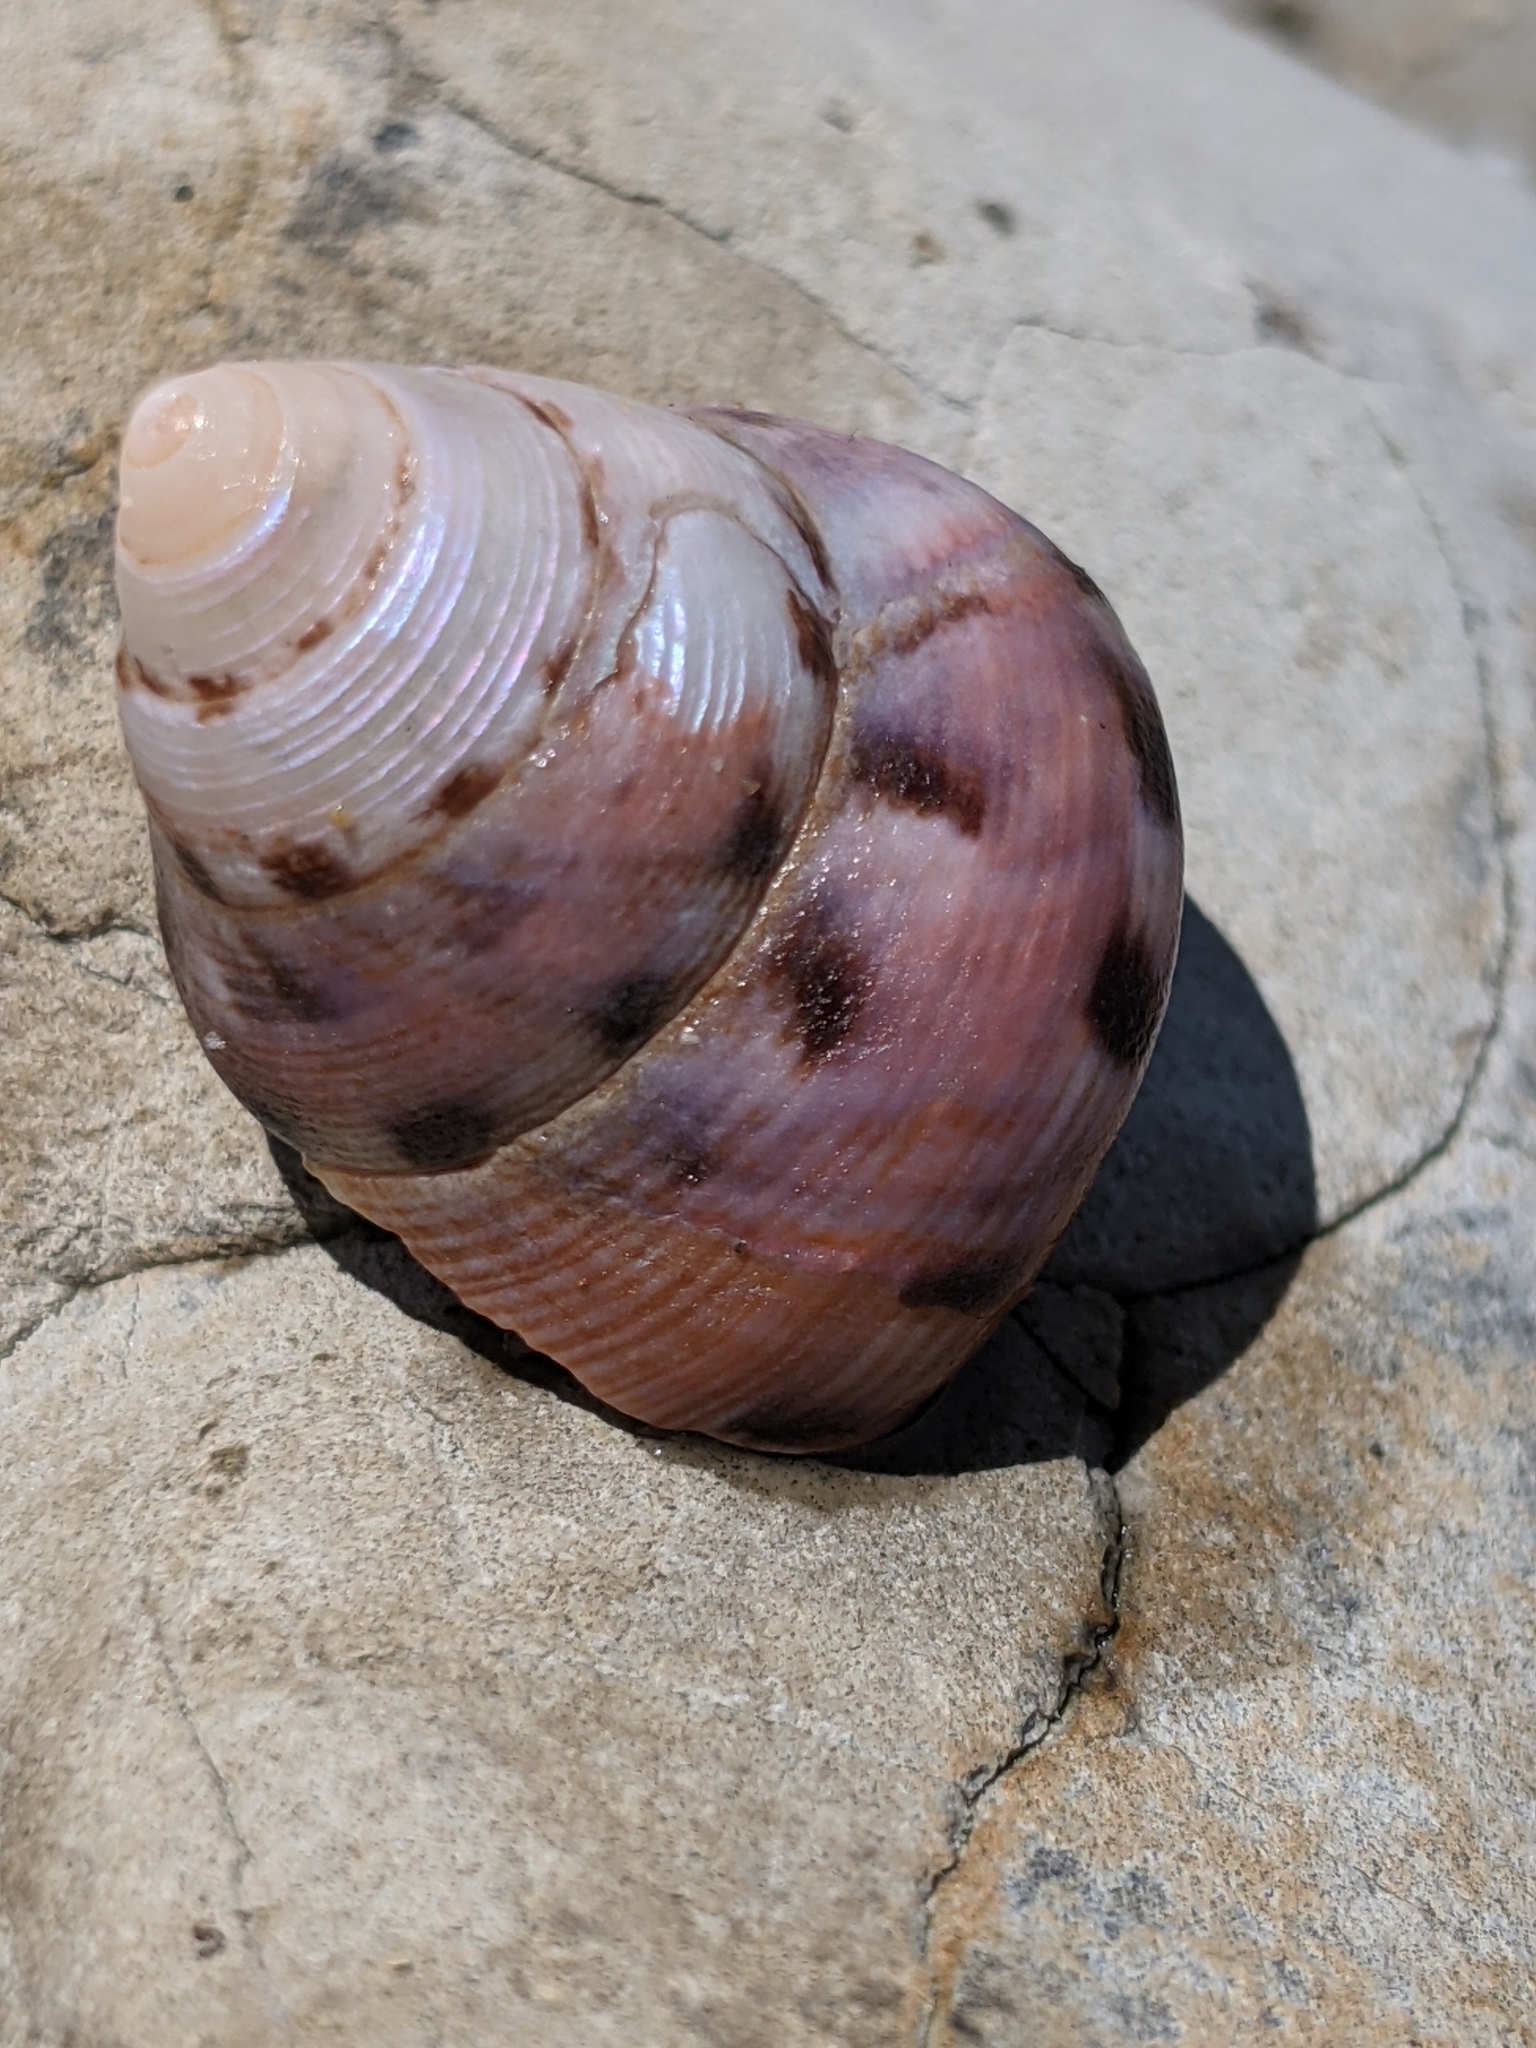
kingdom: Animalia
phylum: Mollusca
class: Gastropoda
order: Trochida
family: Calliostomatidae
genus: Calliostoma
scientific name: Calliostoma gloriosum
